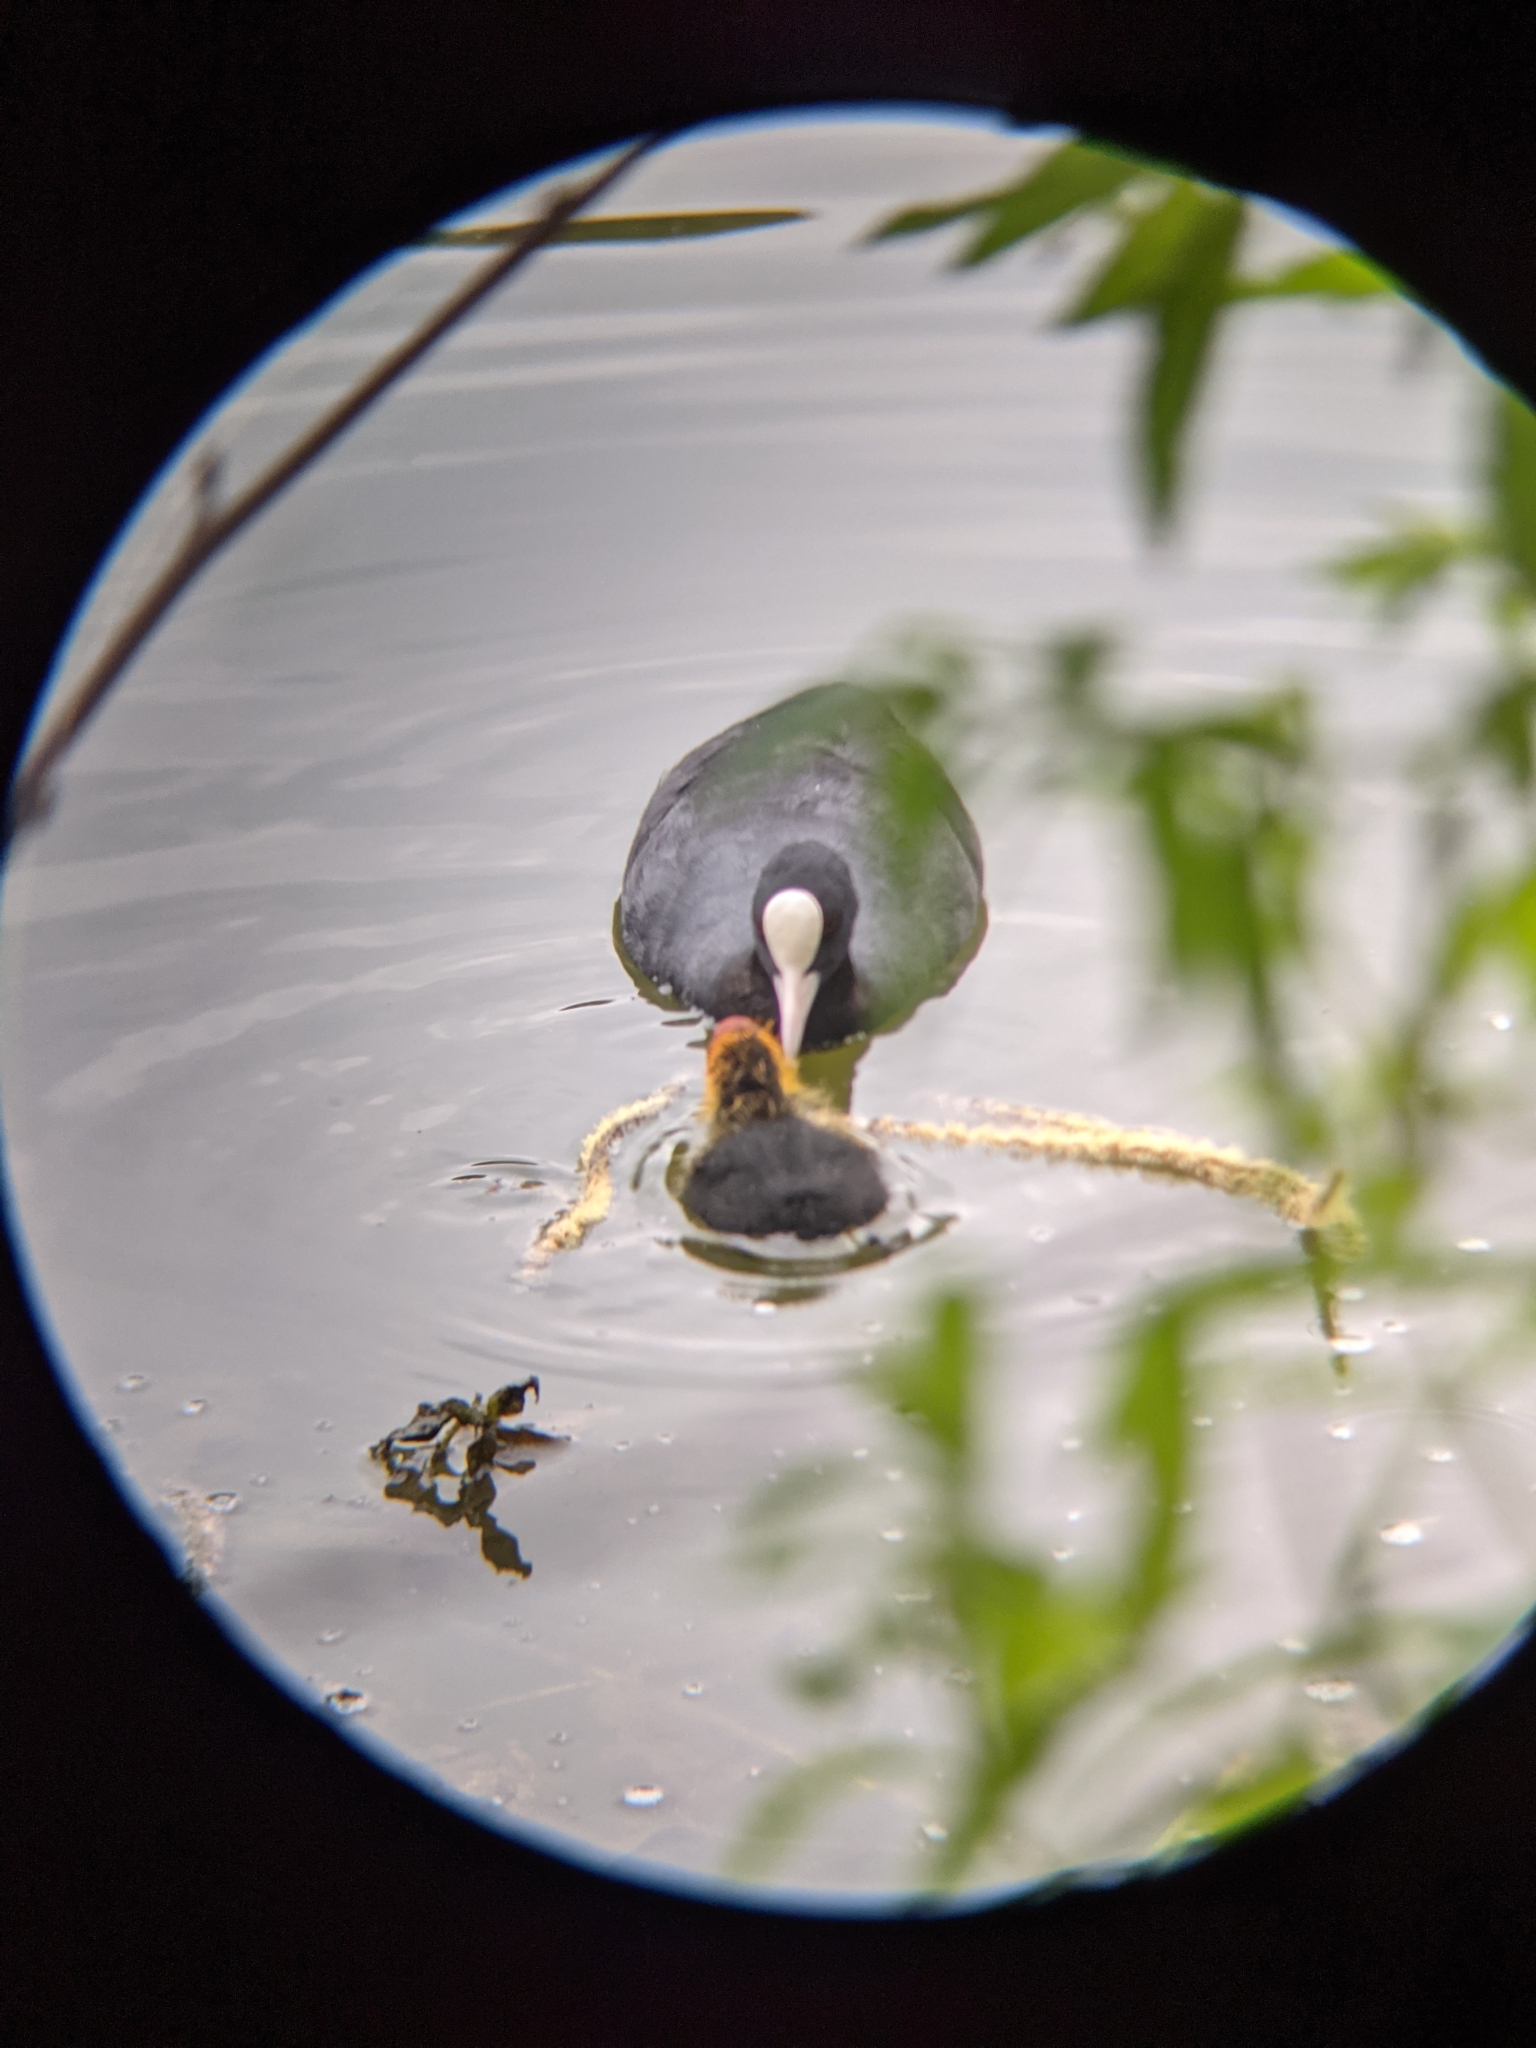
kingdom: Animalia
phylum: Chordata
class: Aves
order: Gruiformes
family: Rallidae
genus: Fulica
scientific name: Fulica atra
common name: Eurasian coot
